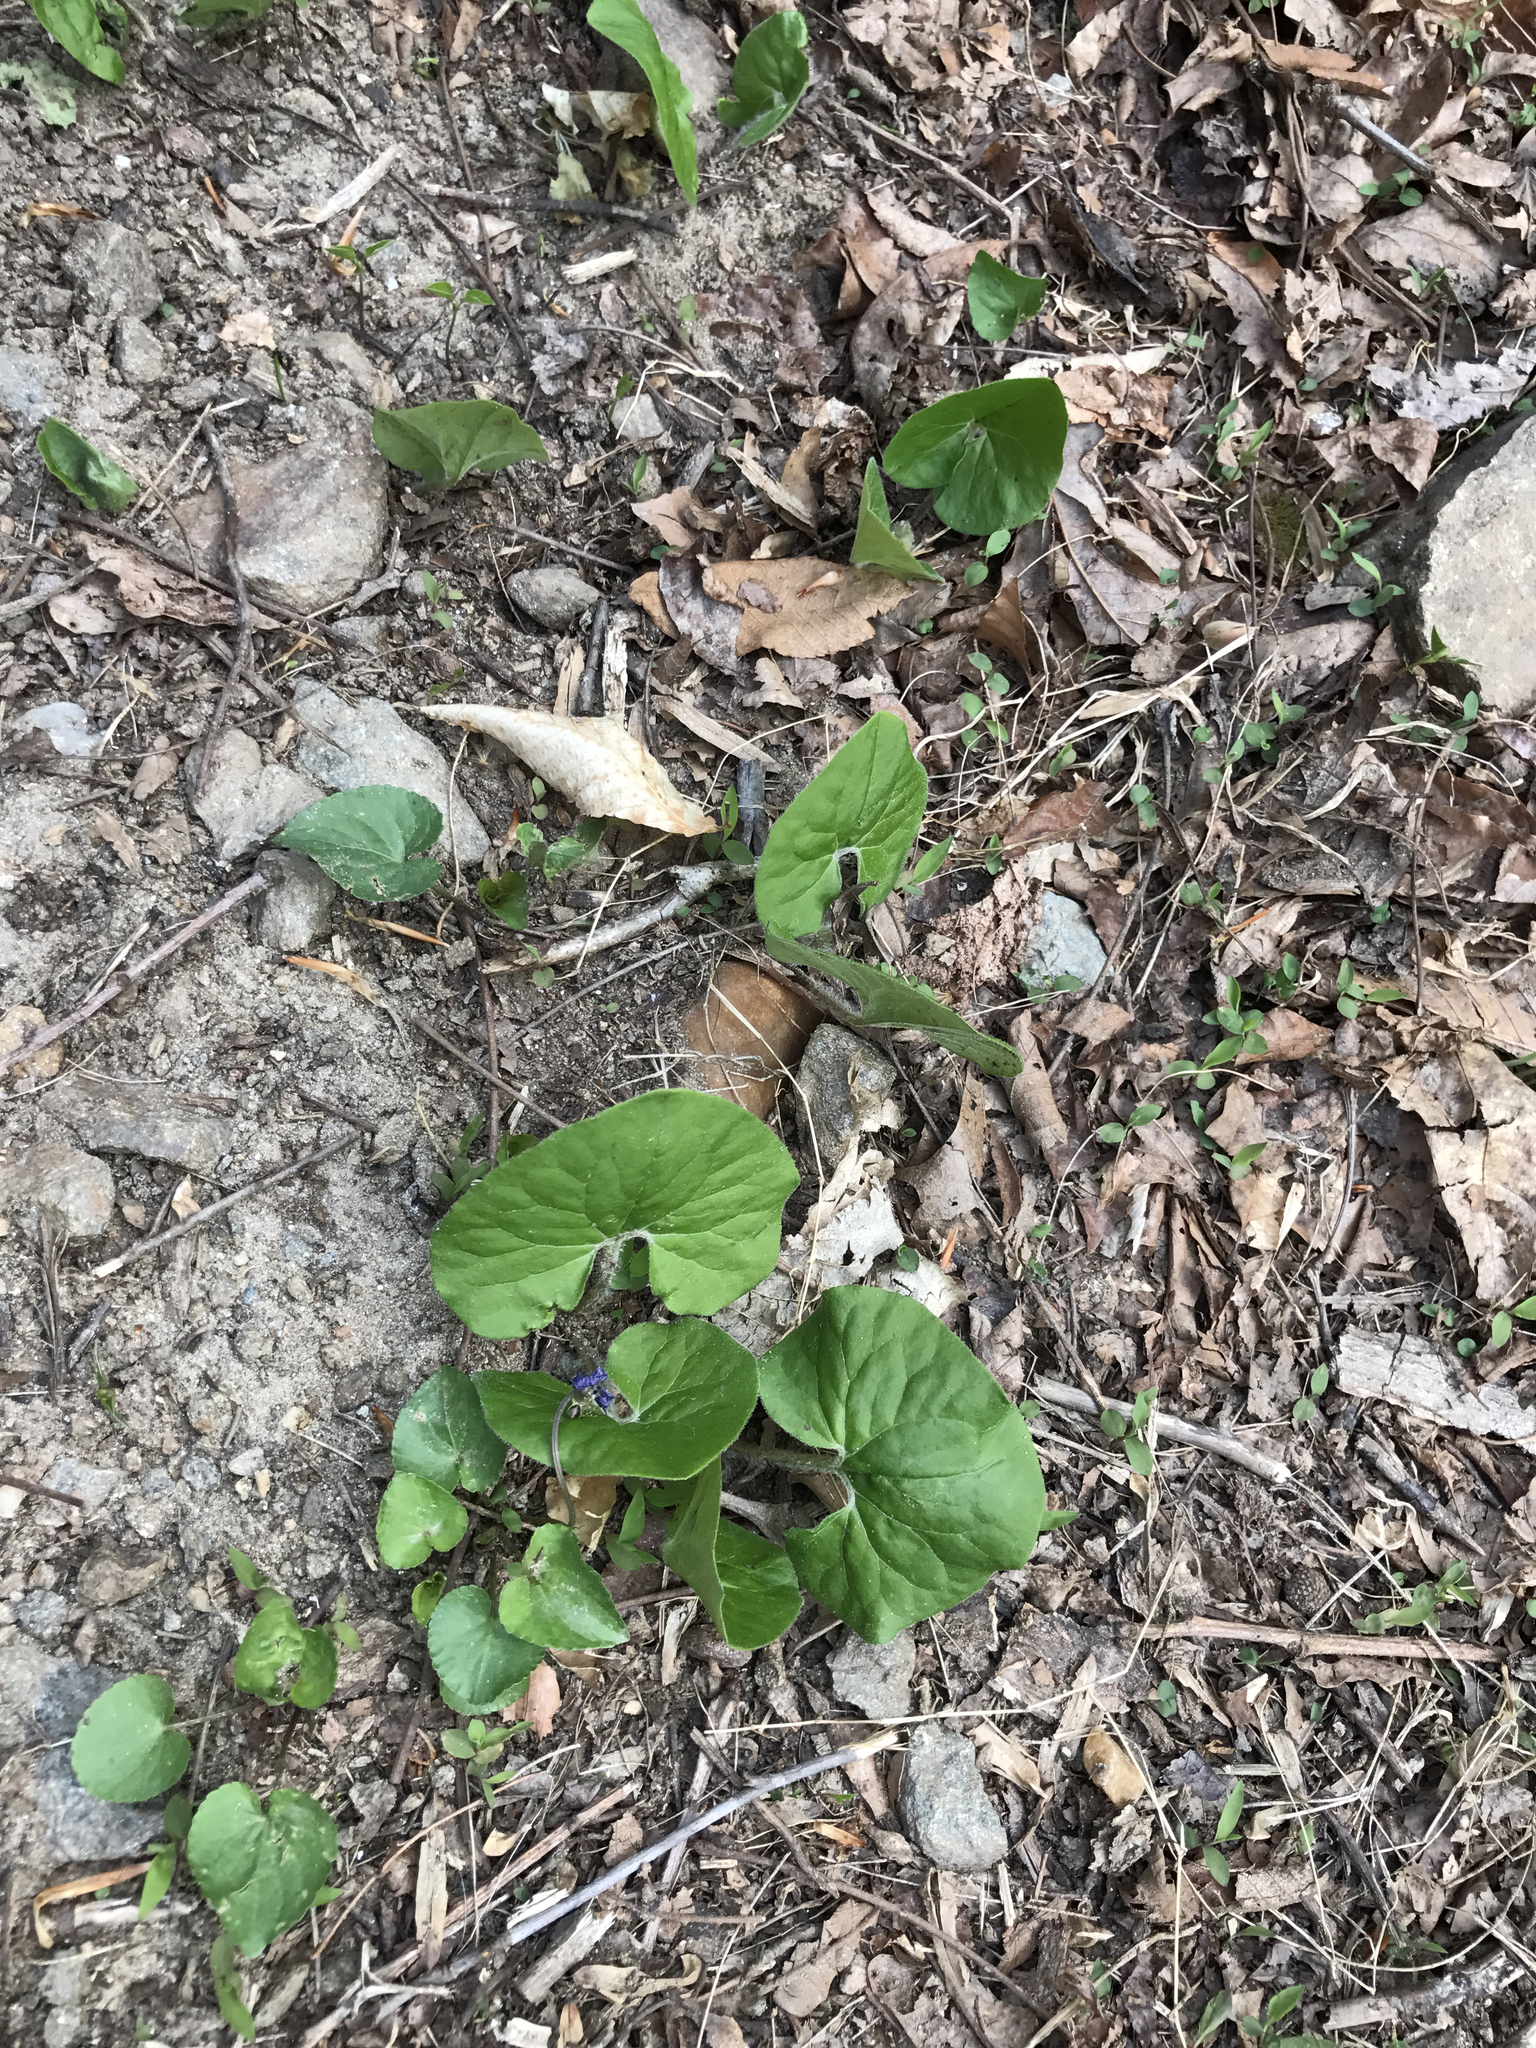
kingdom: Plantae
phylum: Tracheophyta
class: Magnoliopsida
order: Piperales
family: Aristolochiaceae
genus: Asarum
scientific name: Asarum canadense
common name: Wild ginger
